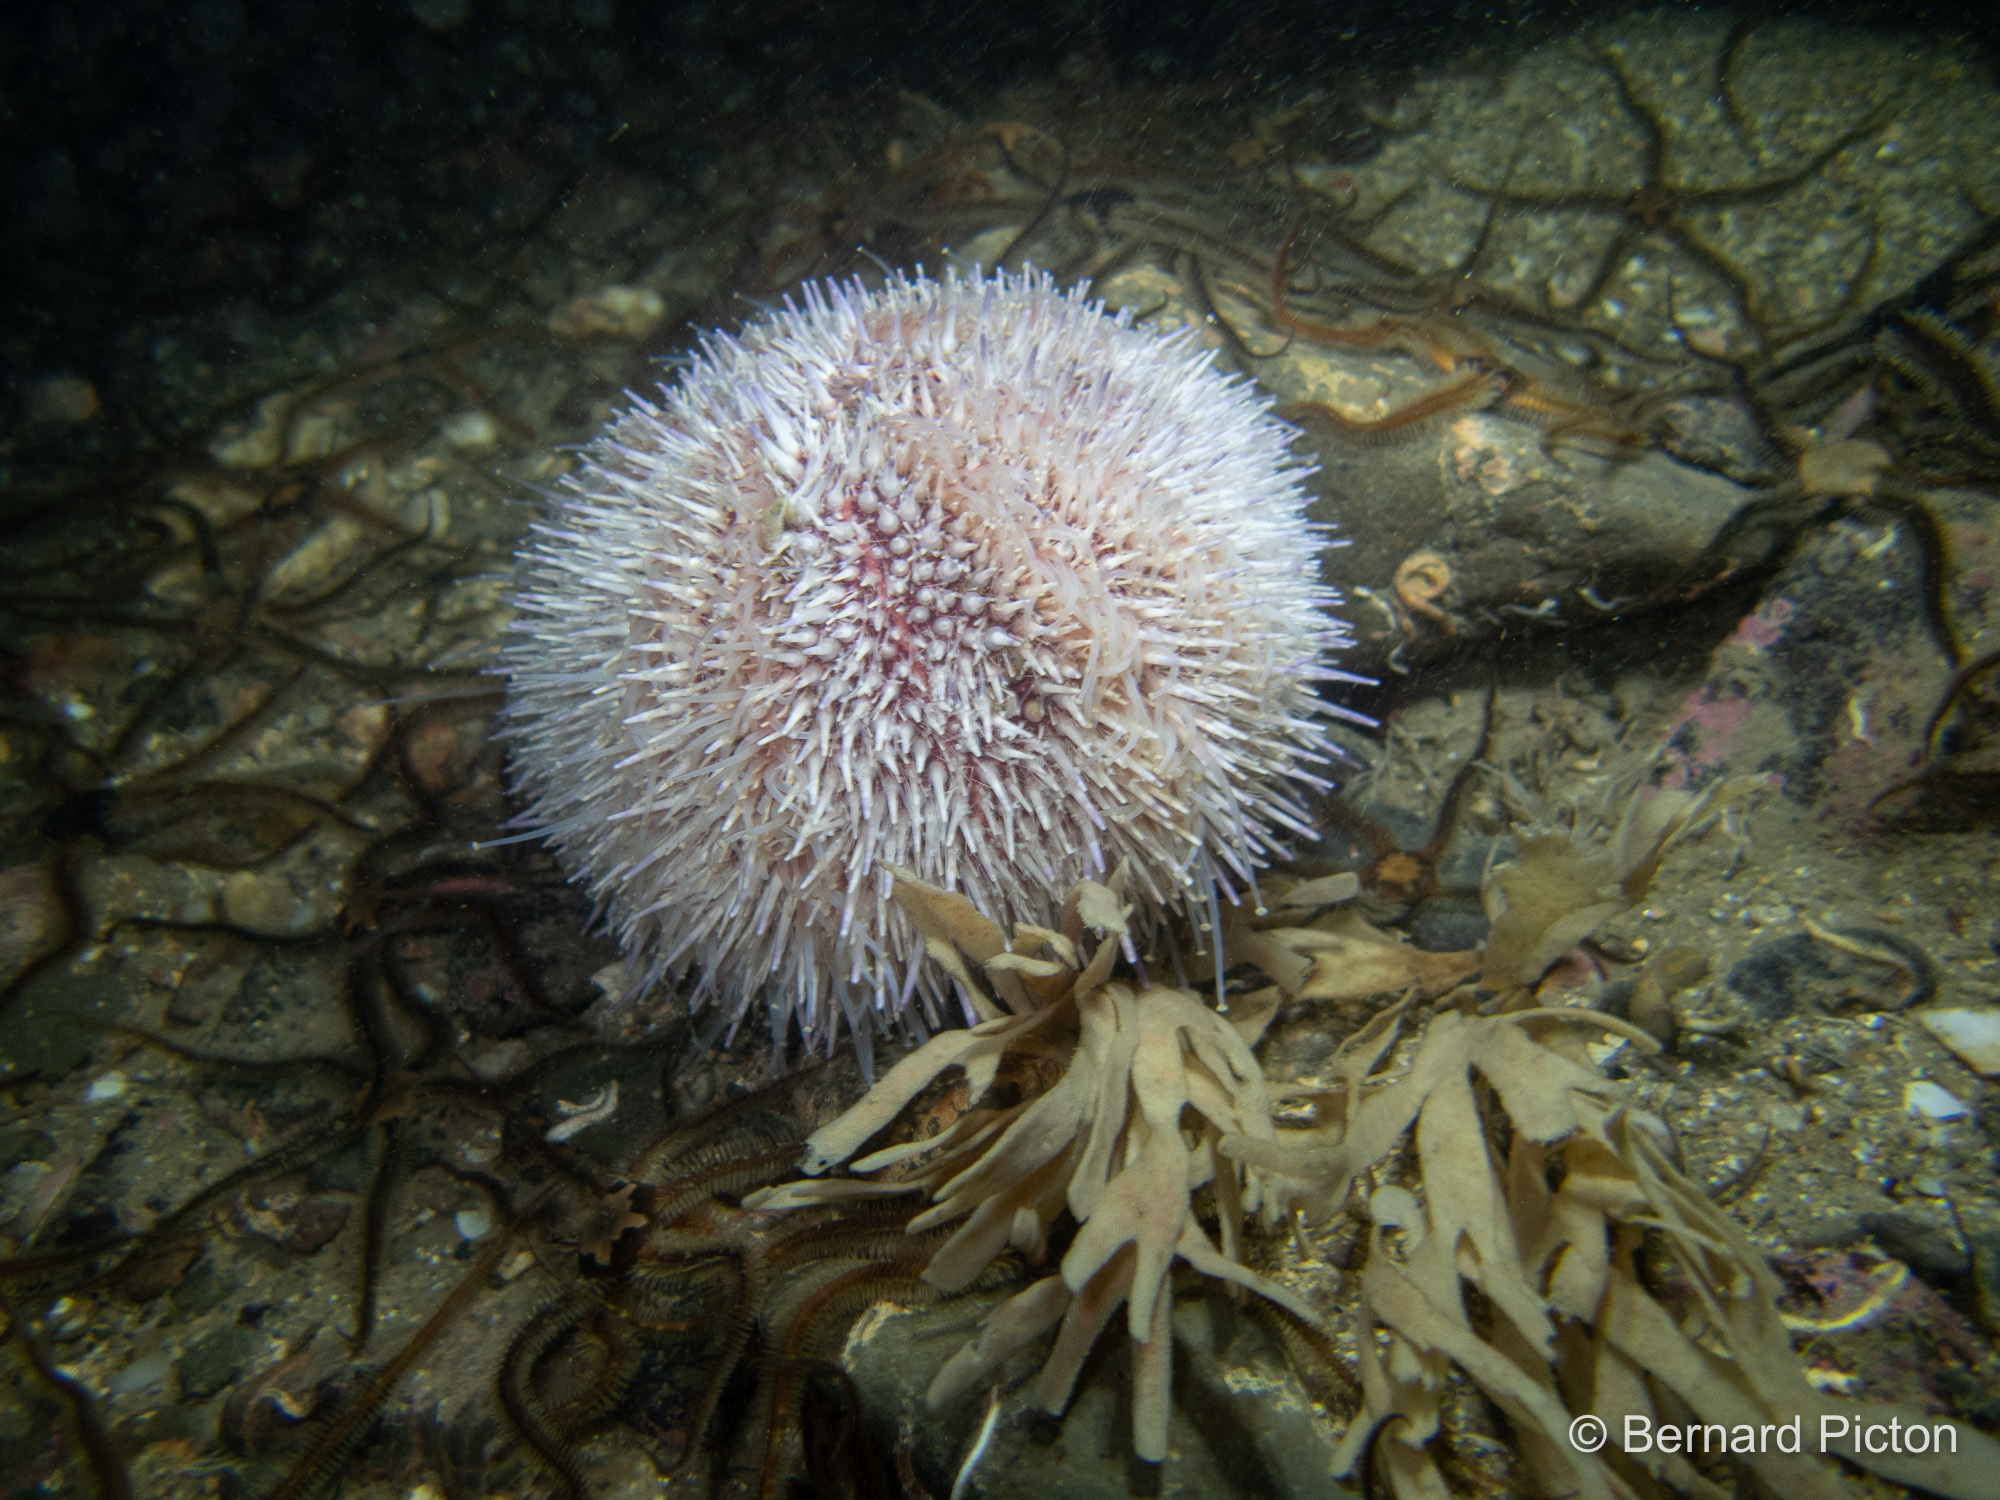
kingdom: Animalia
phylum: Echinodermata
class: Echinoidea
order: Camarodonta
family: Echinidae
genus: Echinus
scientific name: Echinus esculentus
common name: Edible sea urchin
